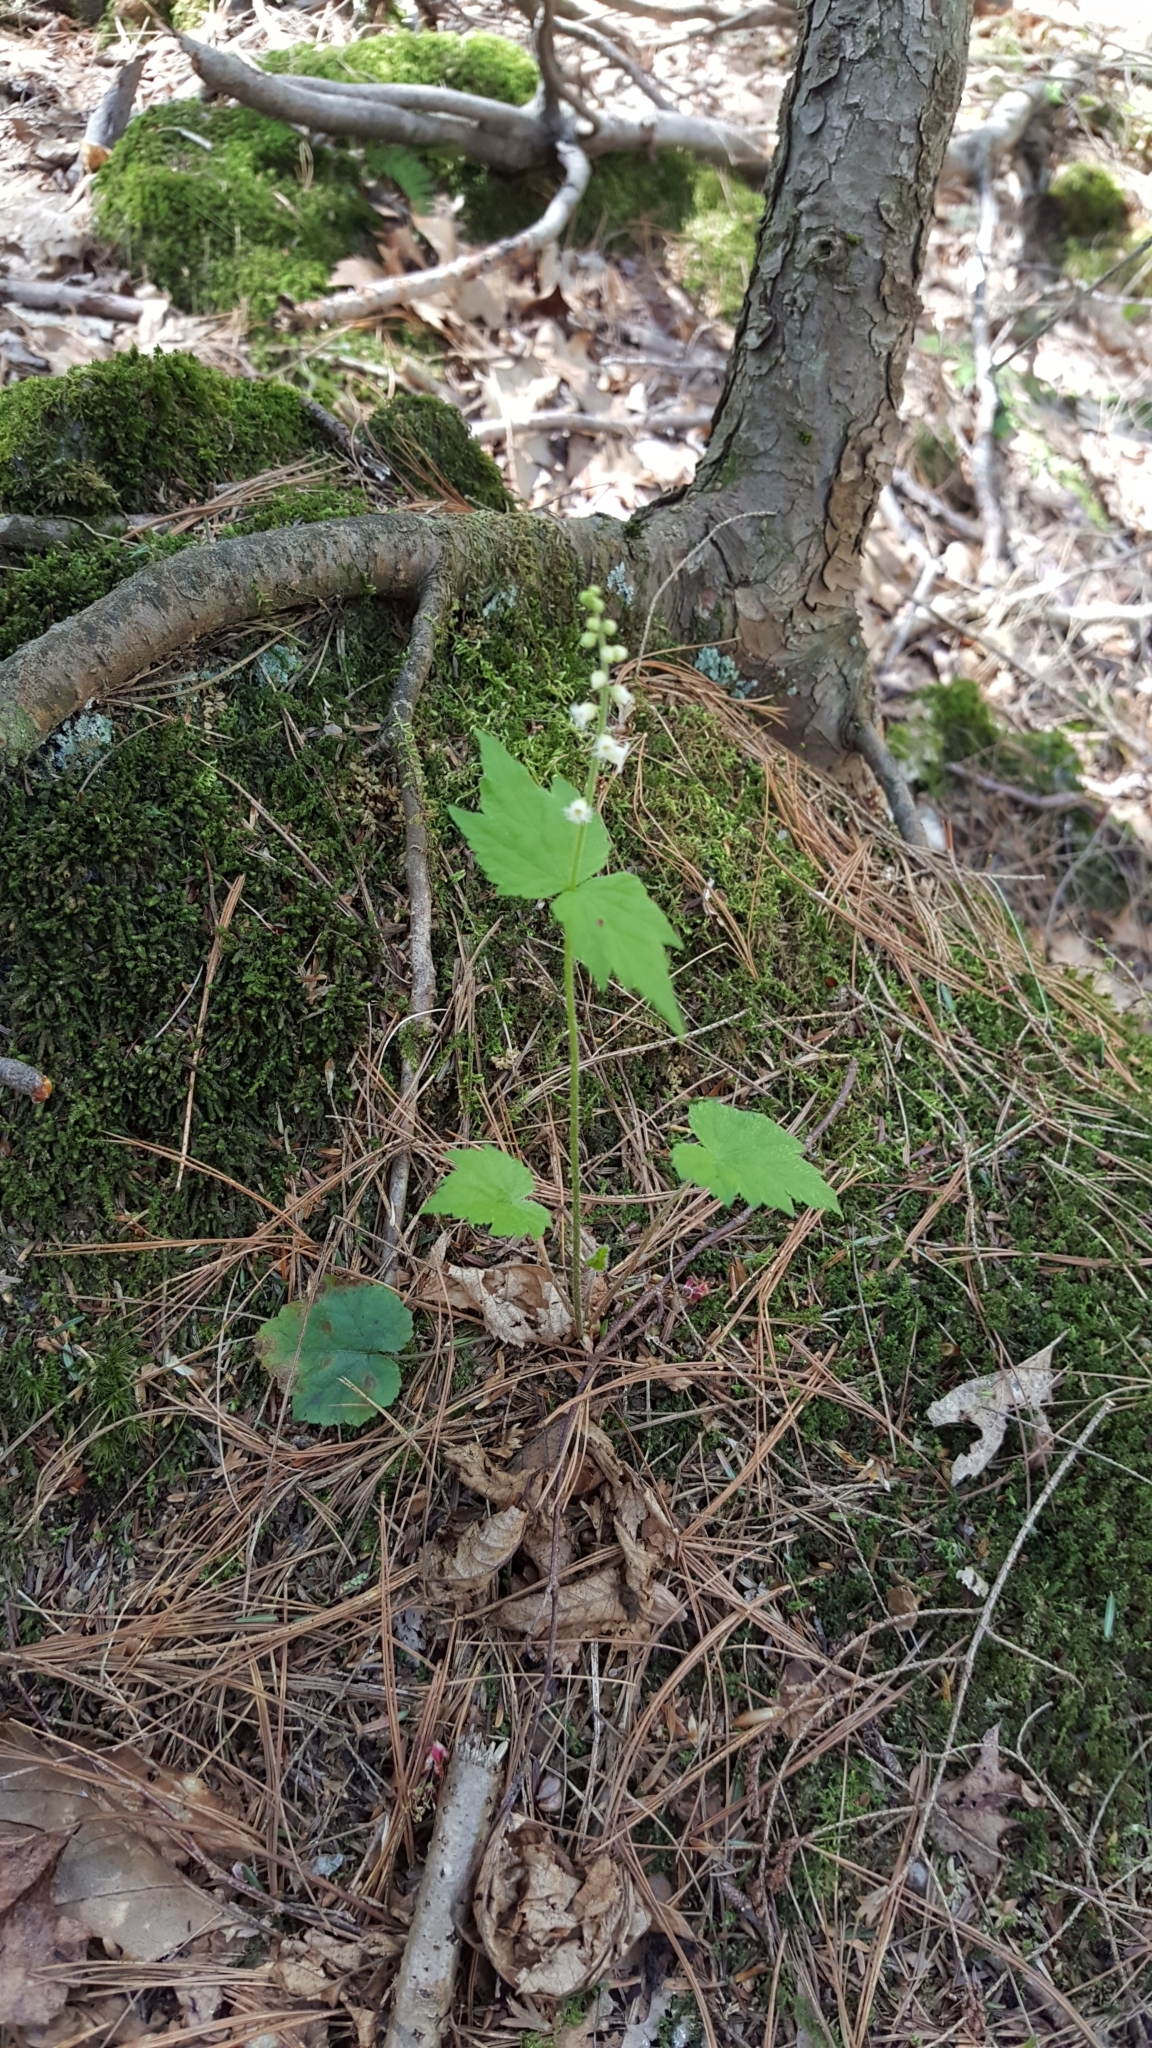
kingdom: Plantae
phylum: Tracheophyta
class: Magnoliopsida
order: Saxifragales
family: Saxifragaceae
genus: Mitella
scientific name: Mitella diphylla
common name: Coolwort
